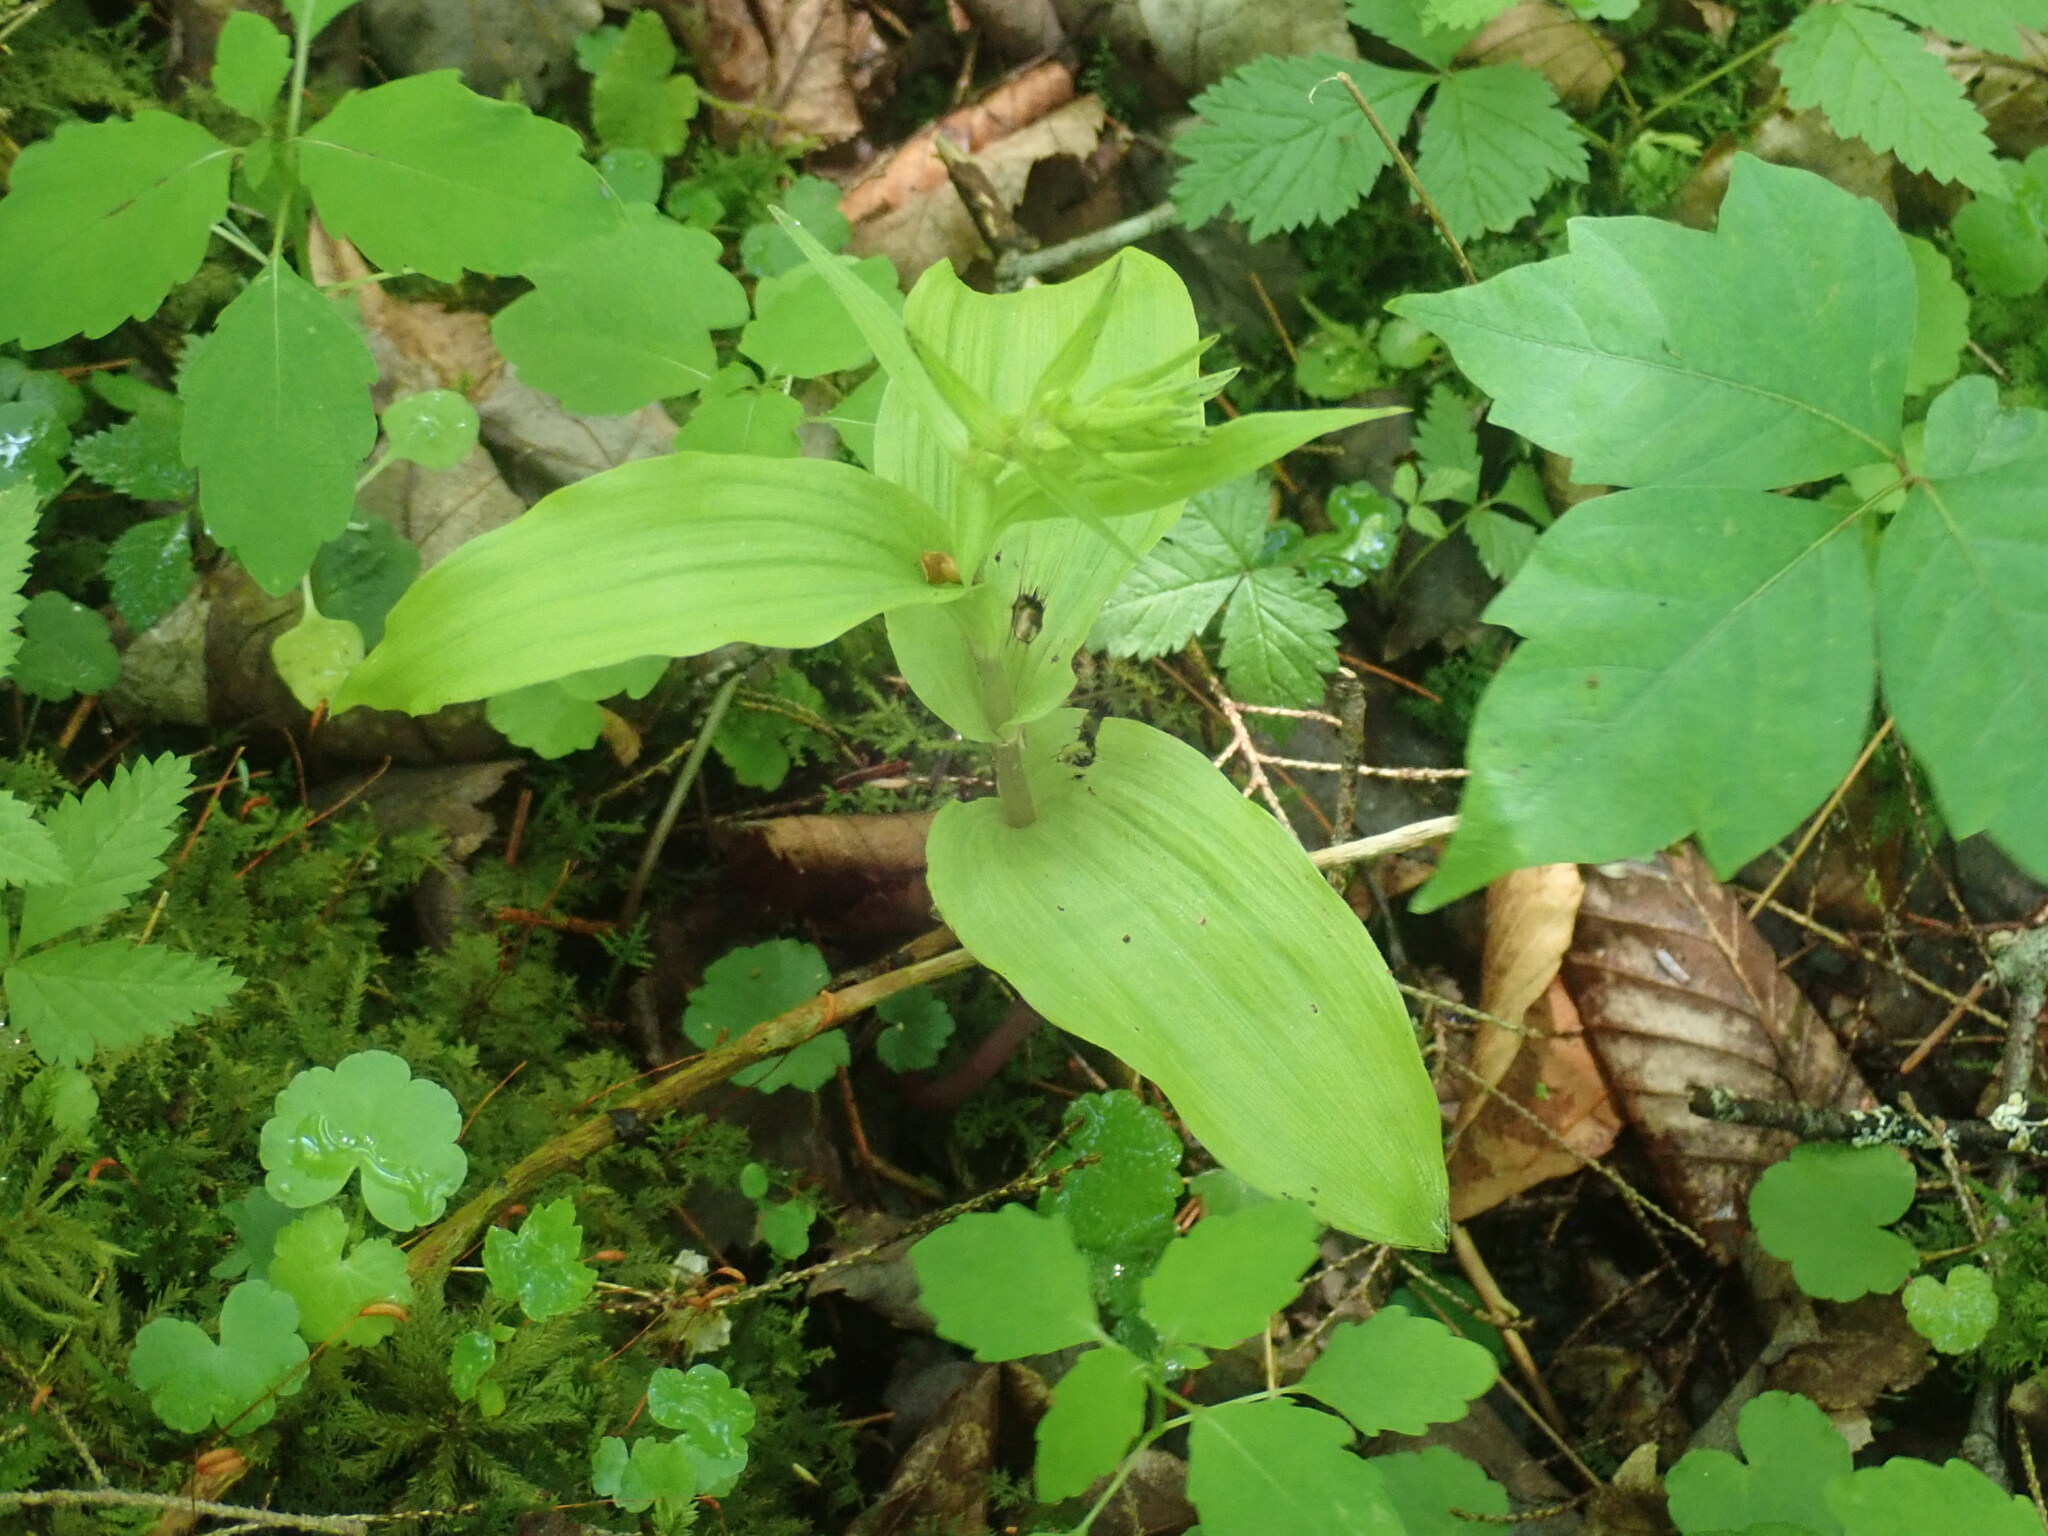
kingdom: Plantae
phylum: Tracheophyta
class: Liliopsida
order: Asparagales
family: Orchidaceae
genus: Epipactis
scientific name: Epipactis helleborine
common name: Broad-leaved helleborine
